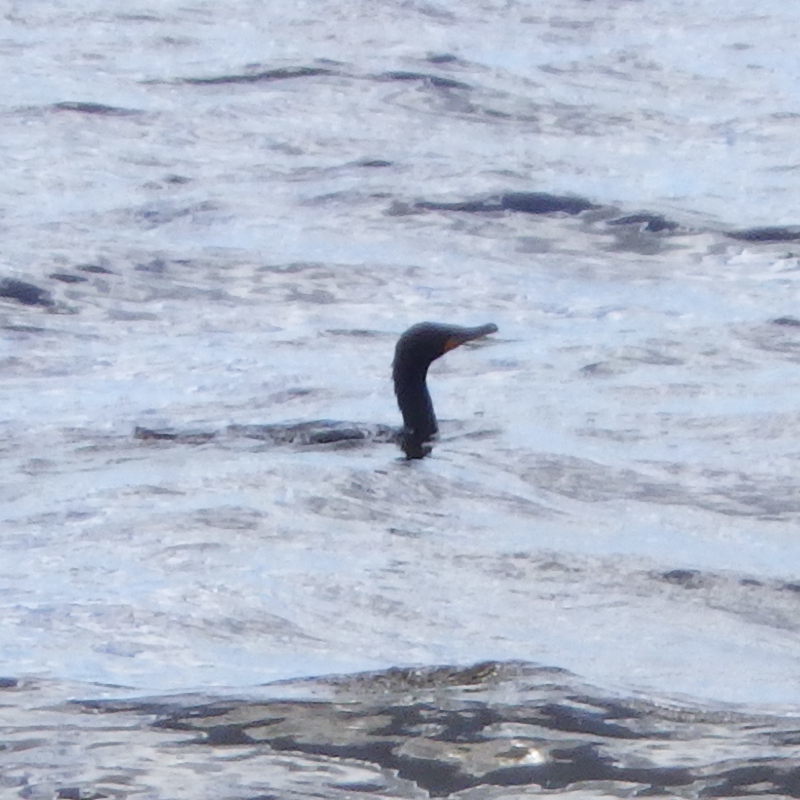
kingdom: Animalia
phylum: Chordata
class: Aves
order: Suliformes
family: Phalacrocoracidae
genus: Phalacrocorax
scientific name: Phalacrocorax auritus
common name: Double-crested cormorant
